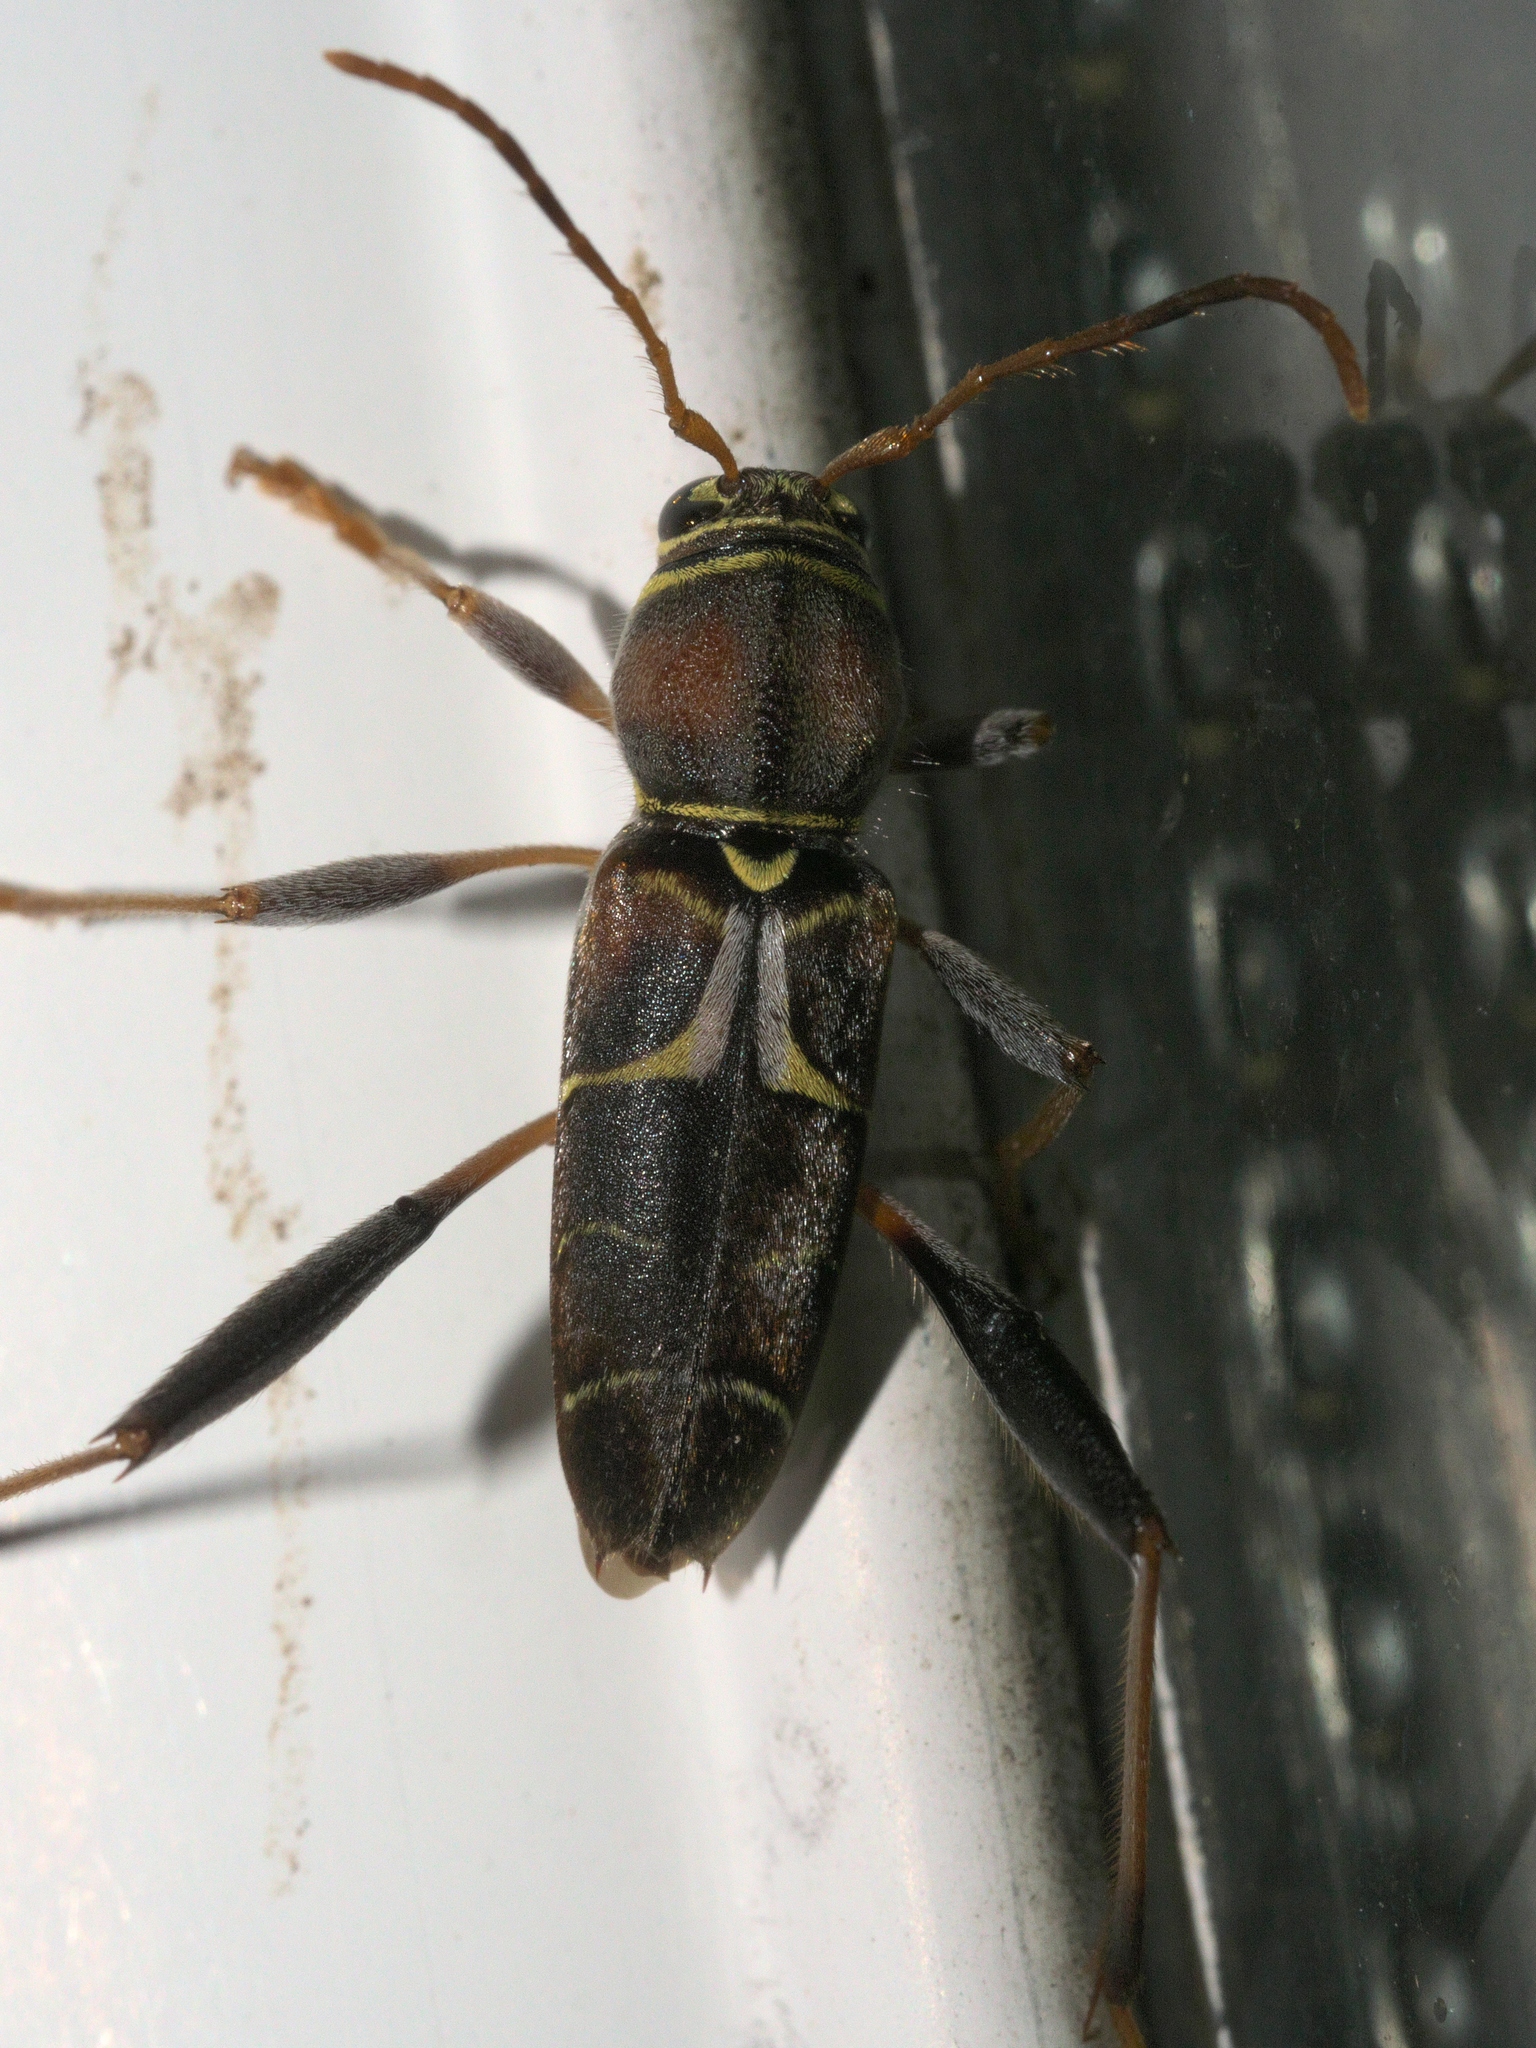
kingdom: Animalia
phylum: Arthropoda
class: Insecta
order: Coleoptera
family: Cerambycidae
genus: Neoclytus
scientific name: Neoclytus mucronatus
